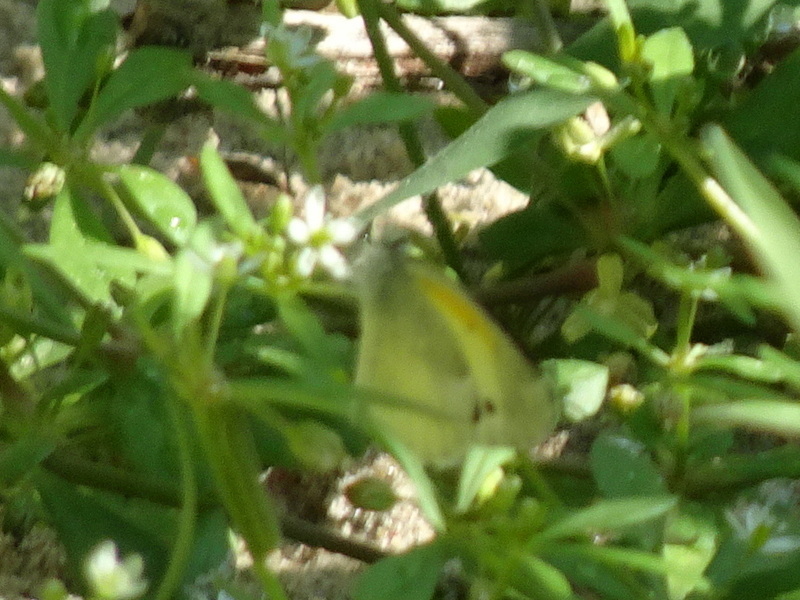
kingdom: Animalia
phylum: Arthropoda
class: Insecta
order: Lepidoptera
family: Pieridae
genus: Nathalis
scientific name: Nathalis iole
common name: Dainty sulphur
